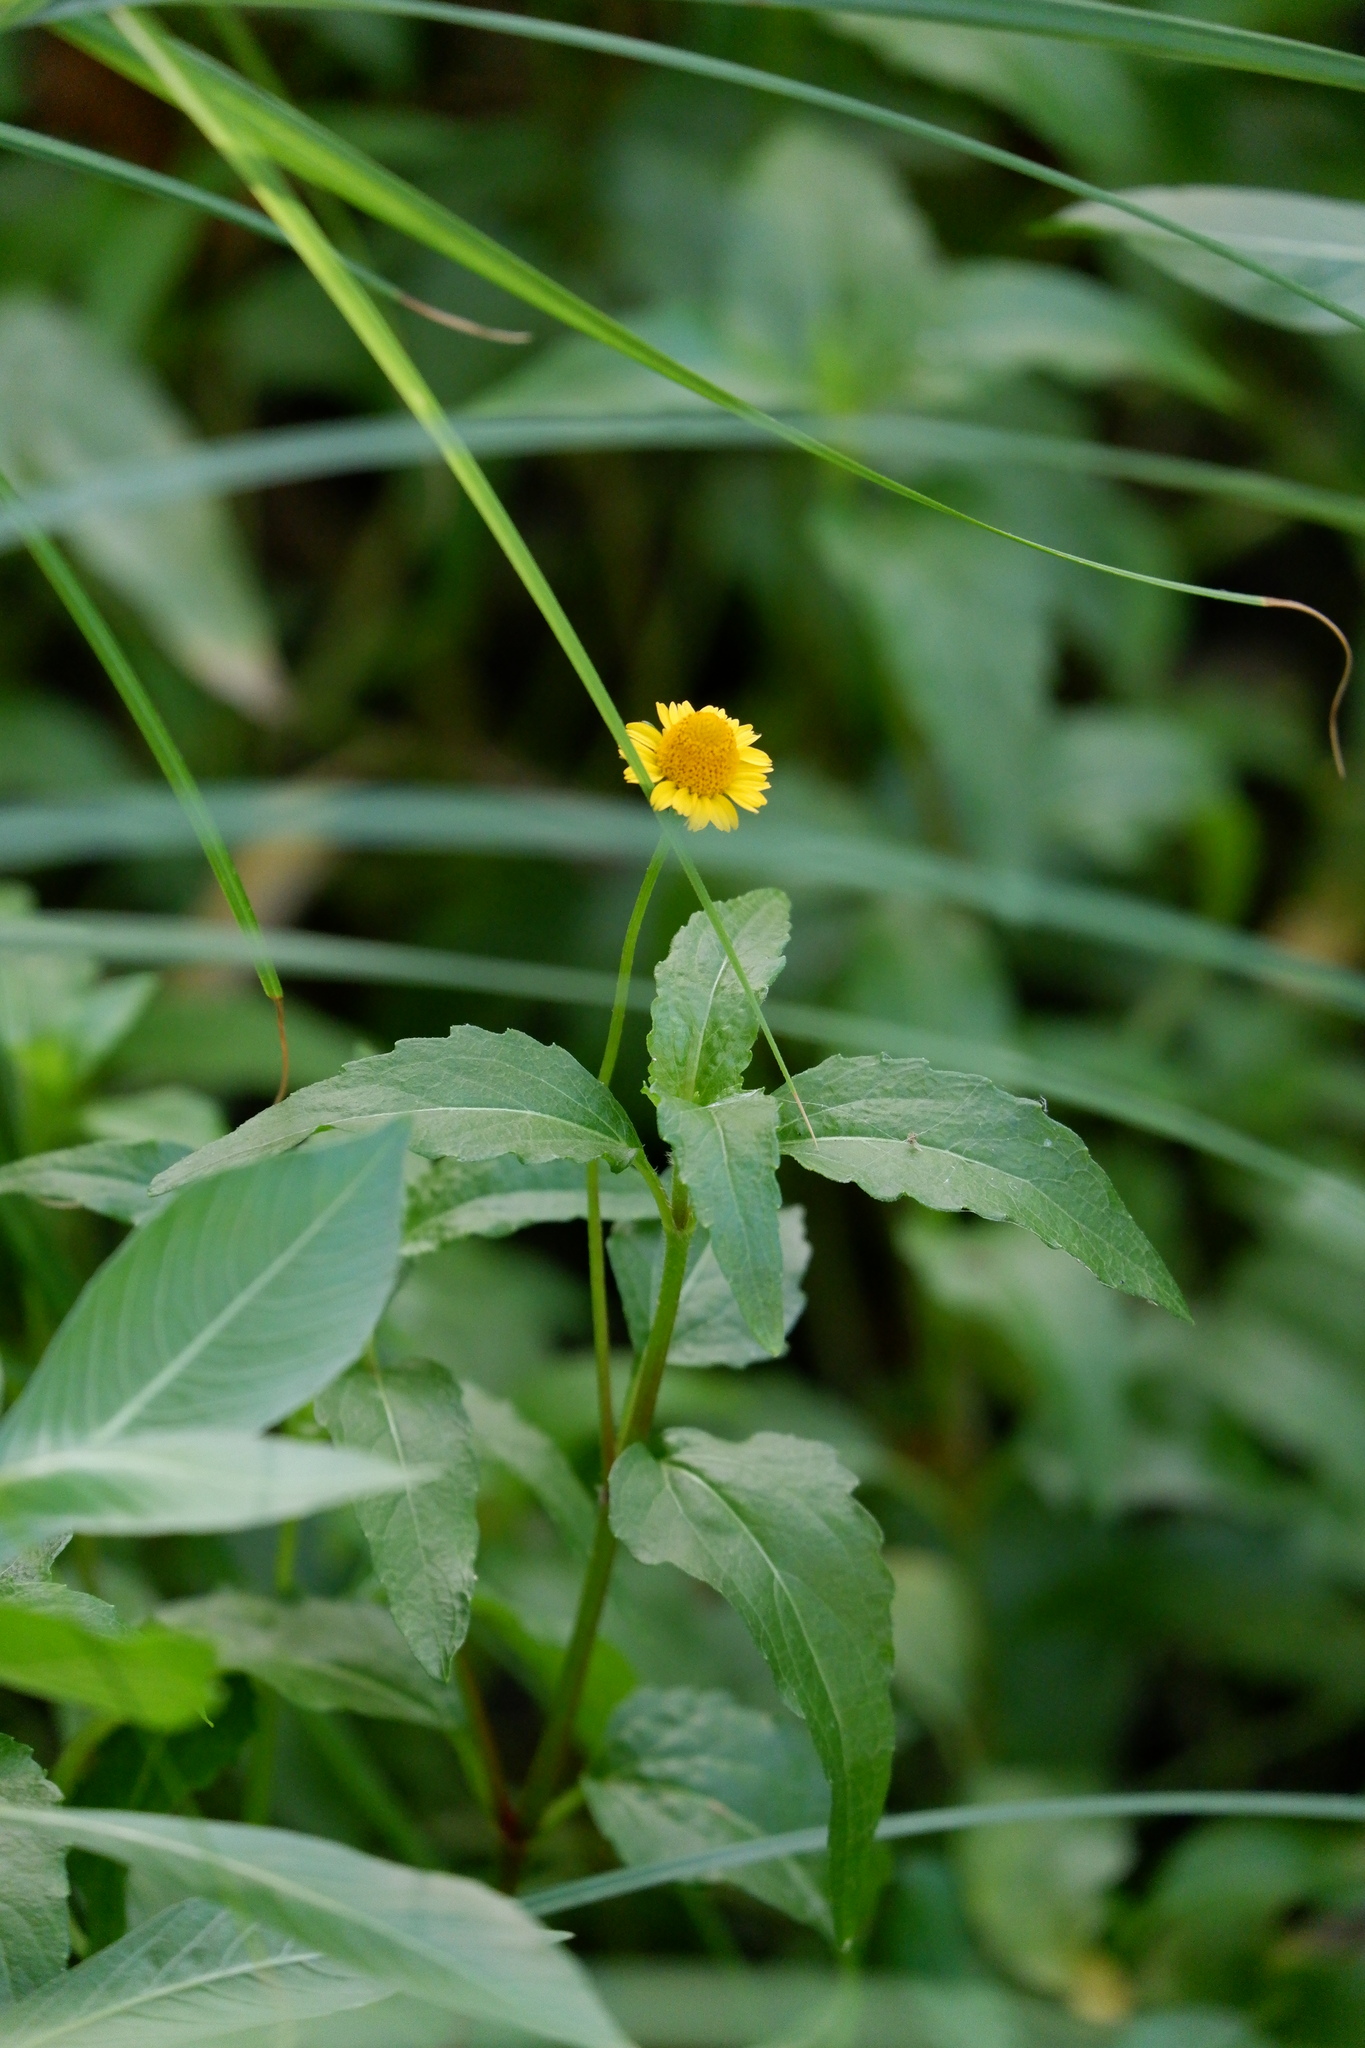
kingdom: Plantae
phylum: Tracheophyta
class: Magnoliopsida
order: Asterales
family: Asteraceae
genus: Acmella
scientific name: Acmella repens
